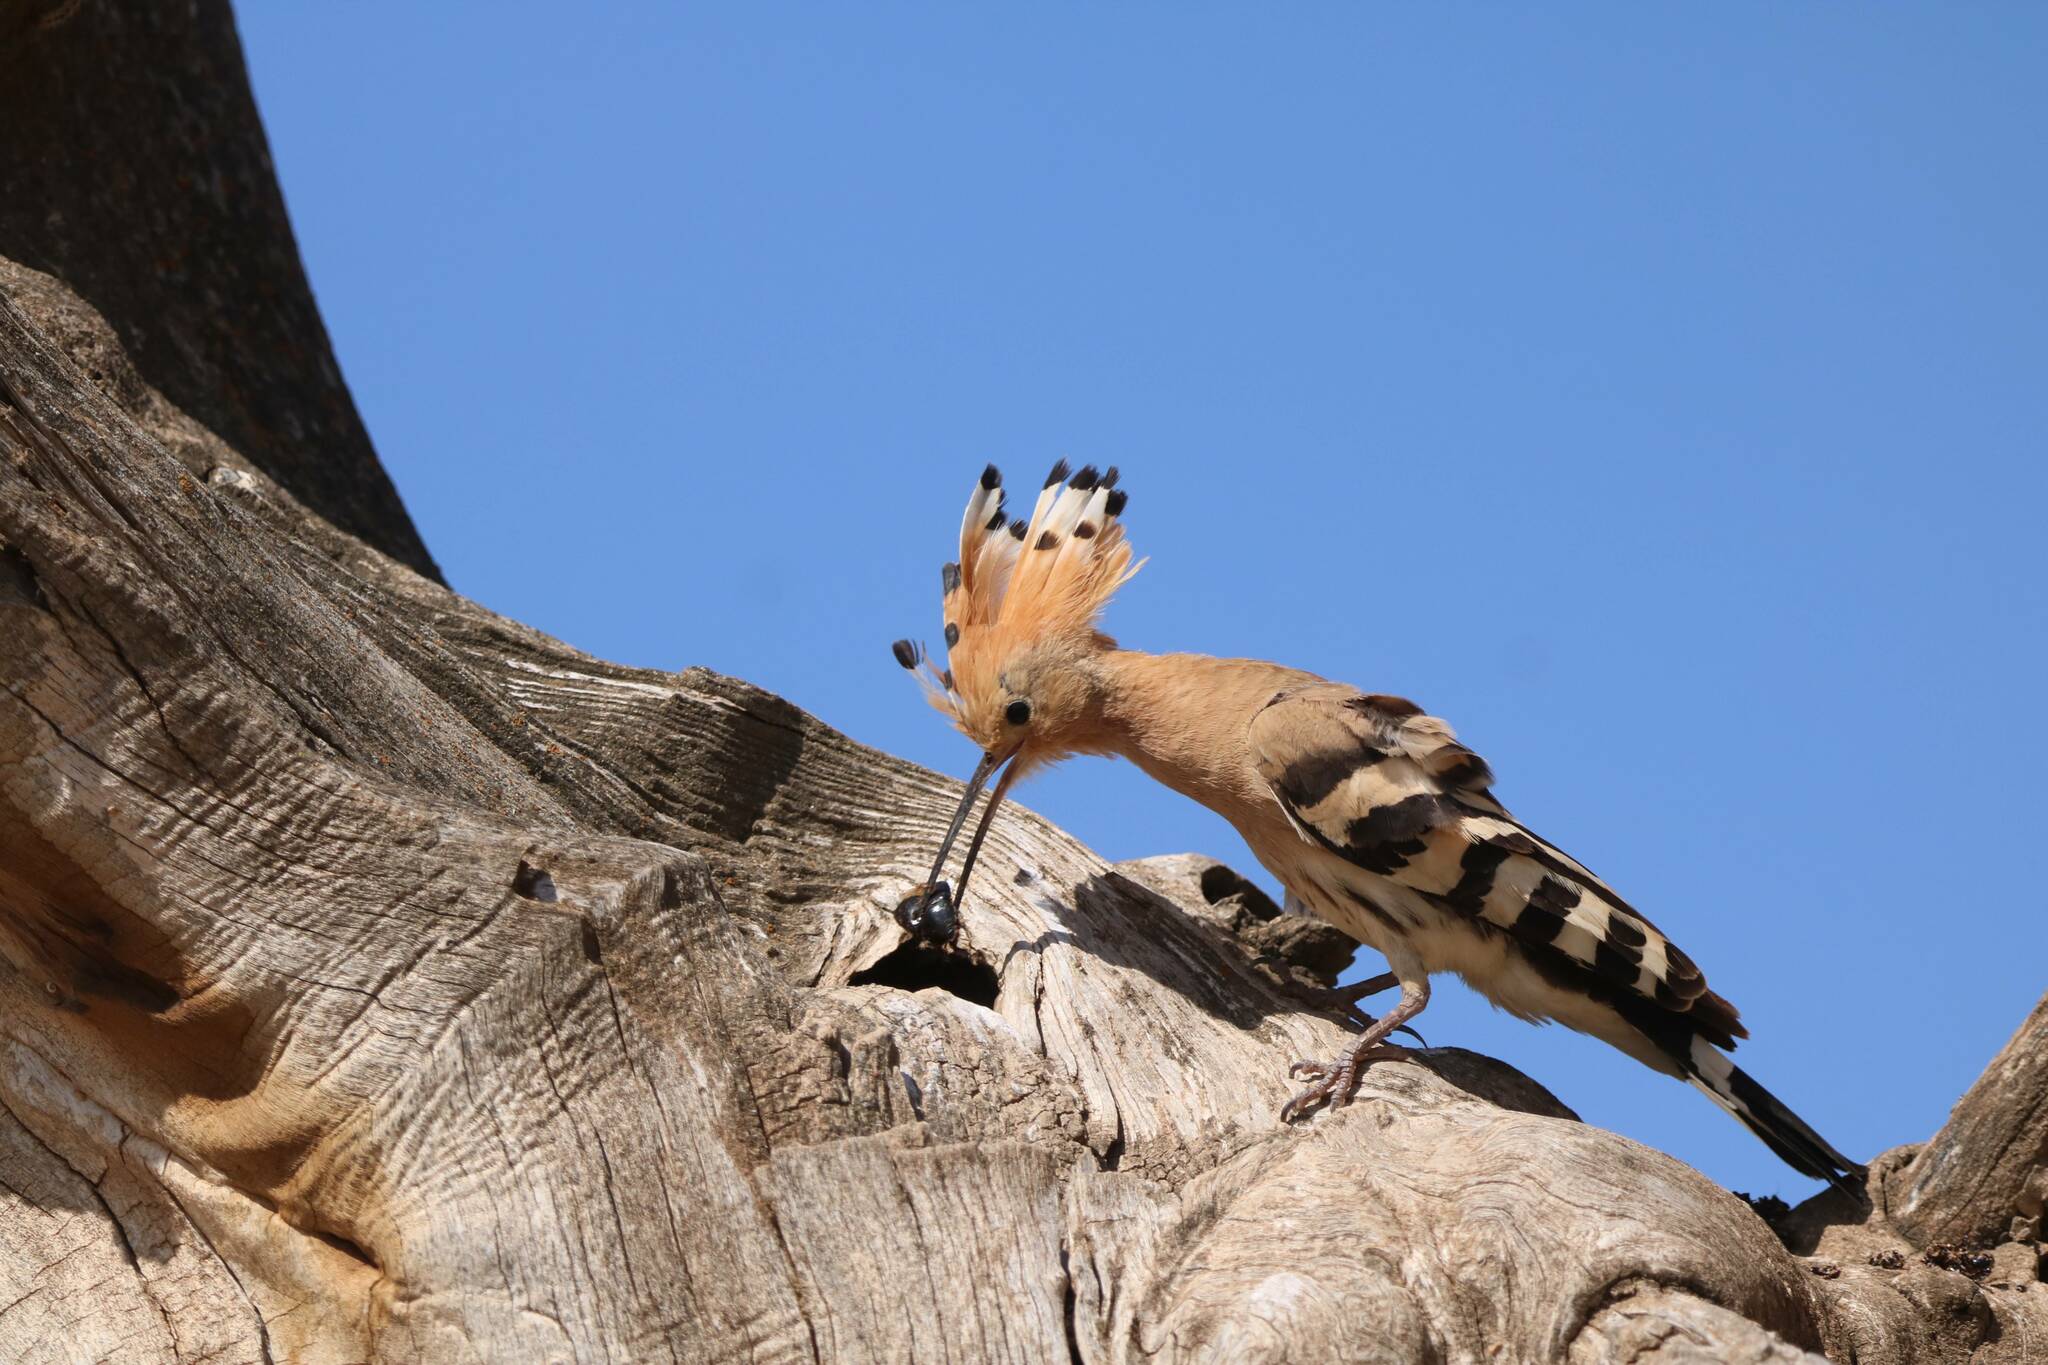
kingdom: Animalia
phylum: Chordata
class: Aves
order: Bucerotiformes
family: Upupidae
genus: Upupa
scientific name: Upupa epops
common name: Eurasian hoopoe
